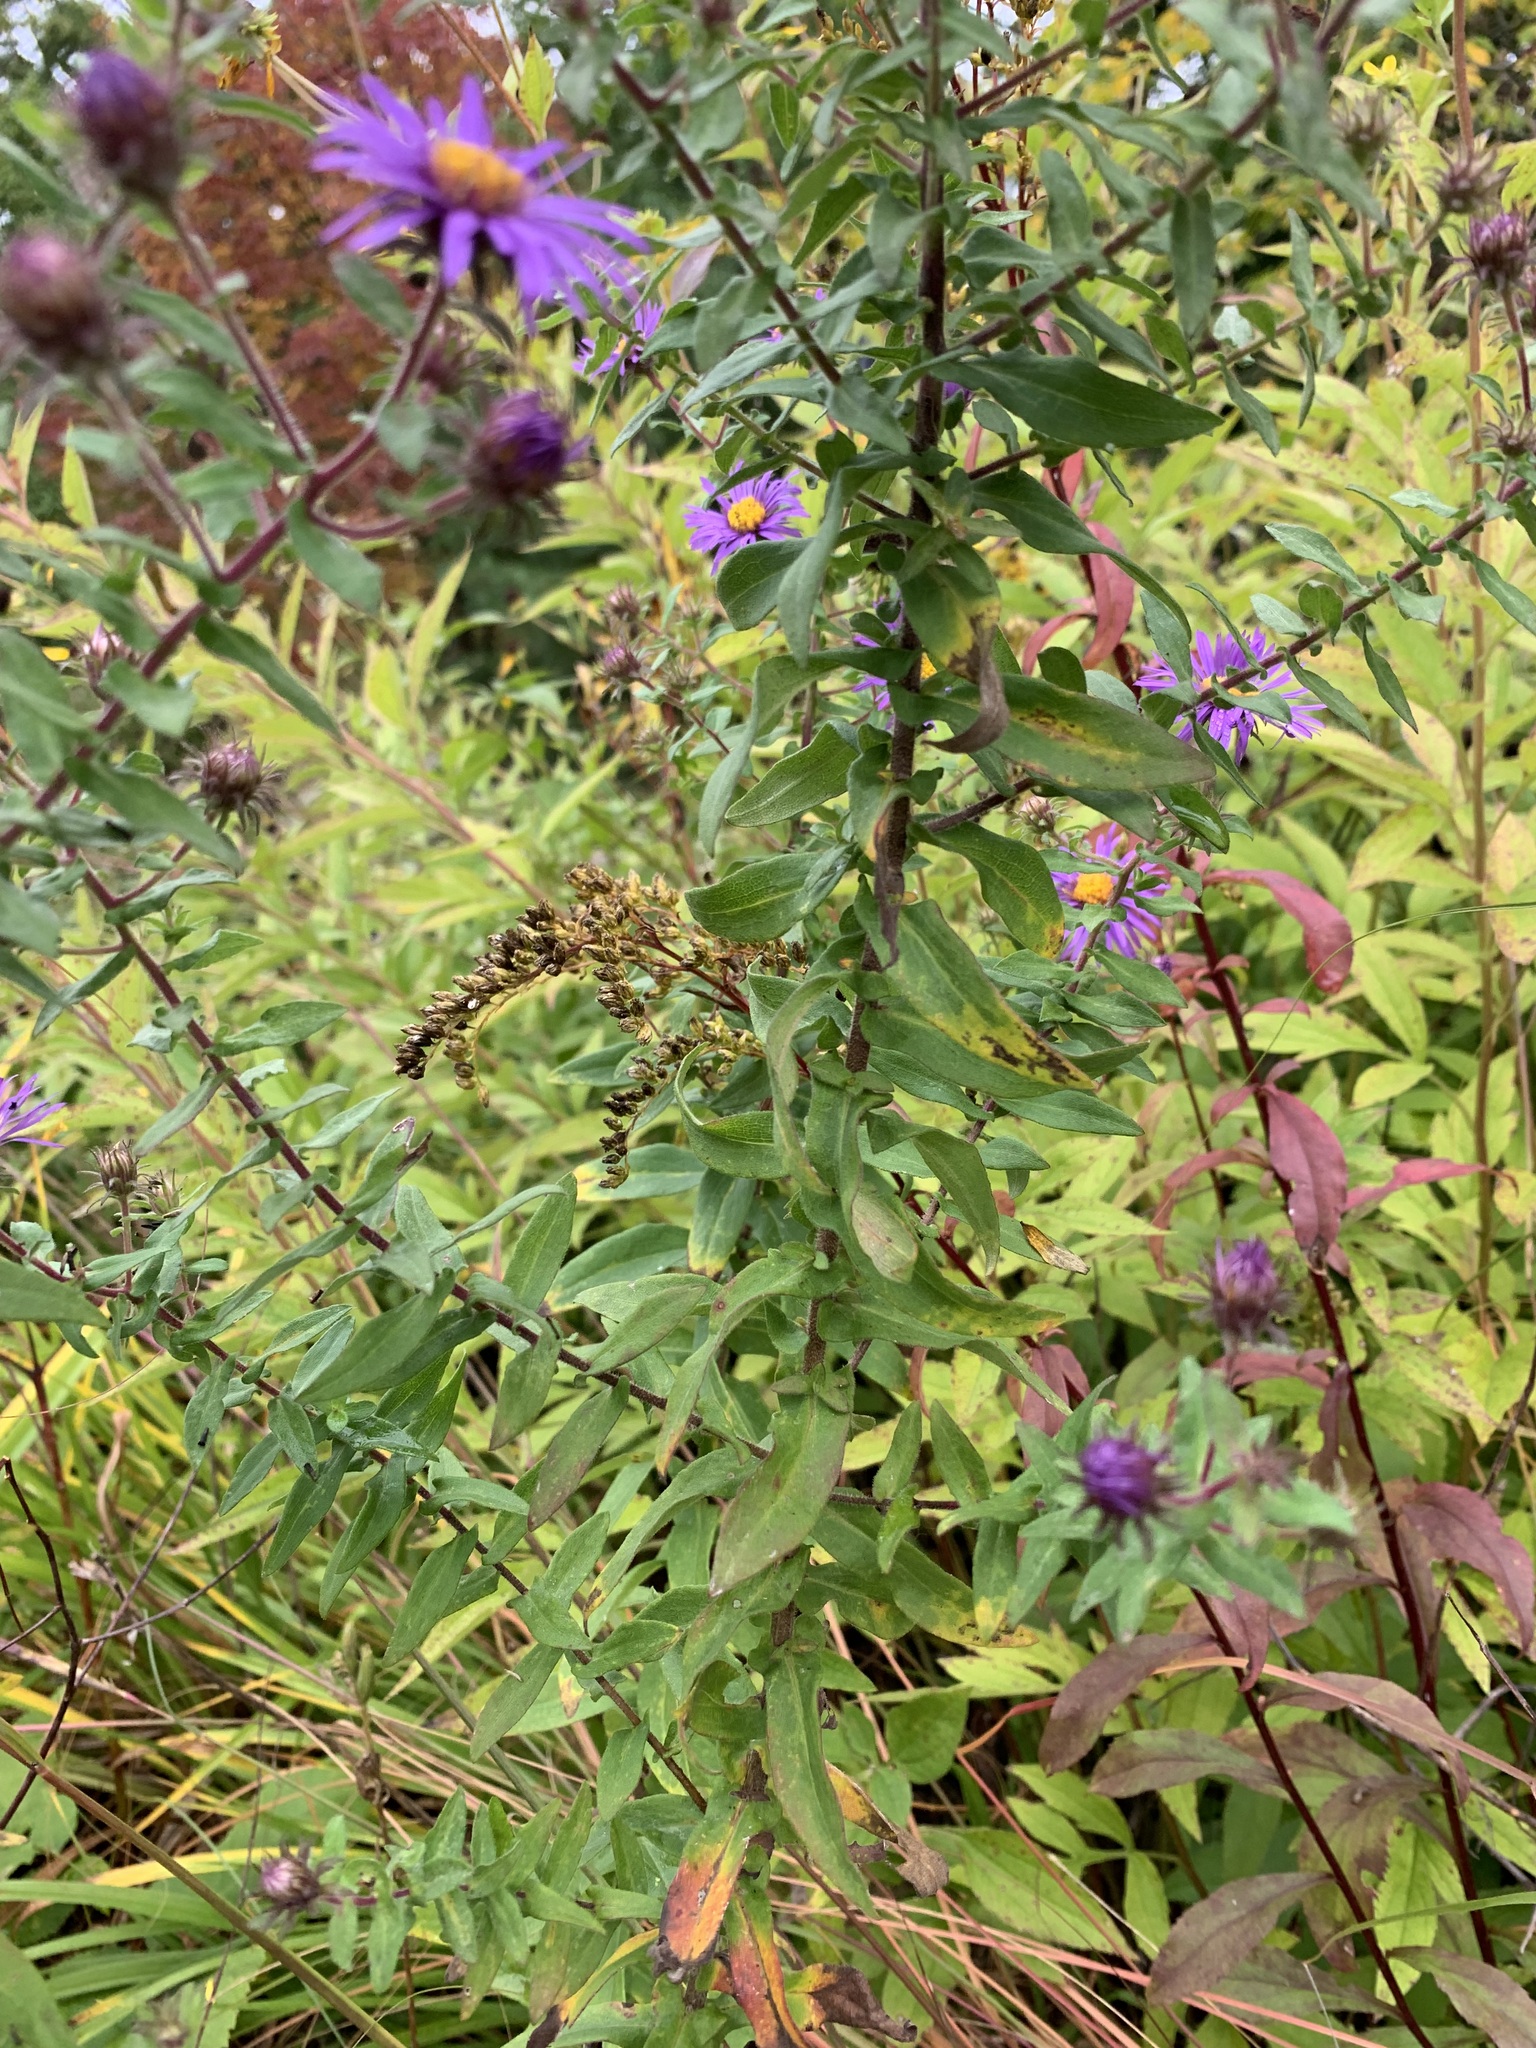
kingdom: Plantae
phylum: Tracheophyta
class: Magnoliopsida
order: Asterales
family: Asteraceae
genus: Symphyotrichum
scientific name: Symphyotrichum novae-angliae
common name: Michaelmas daisy
